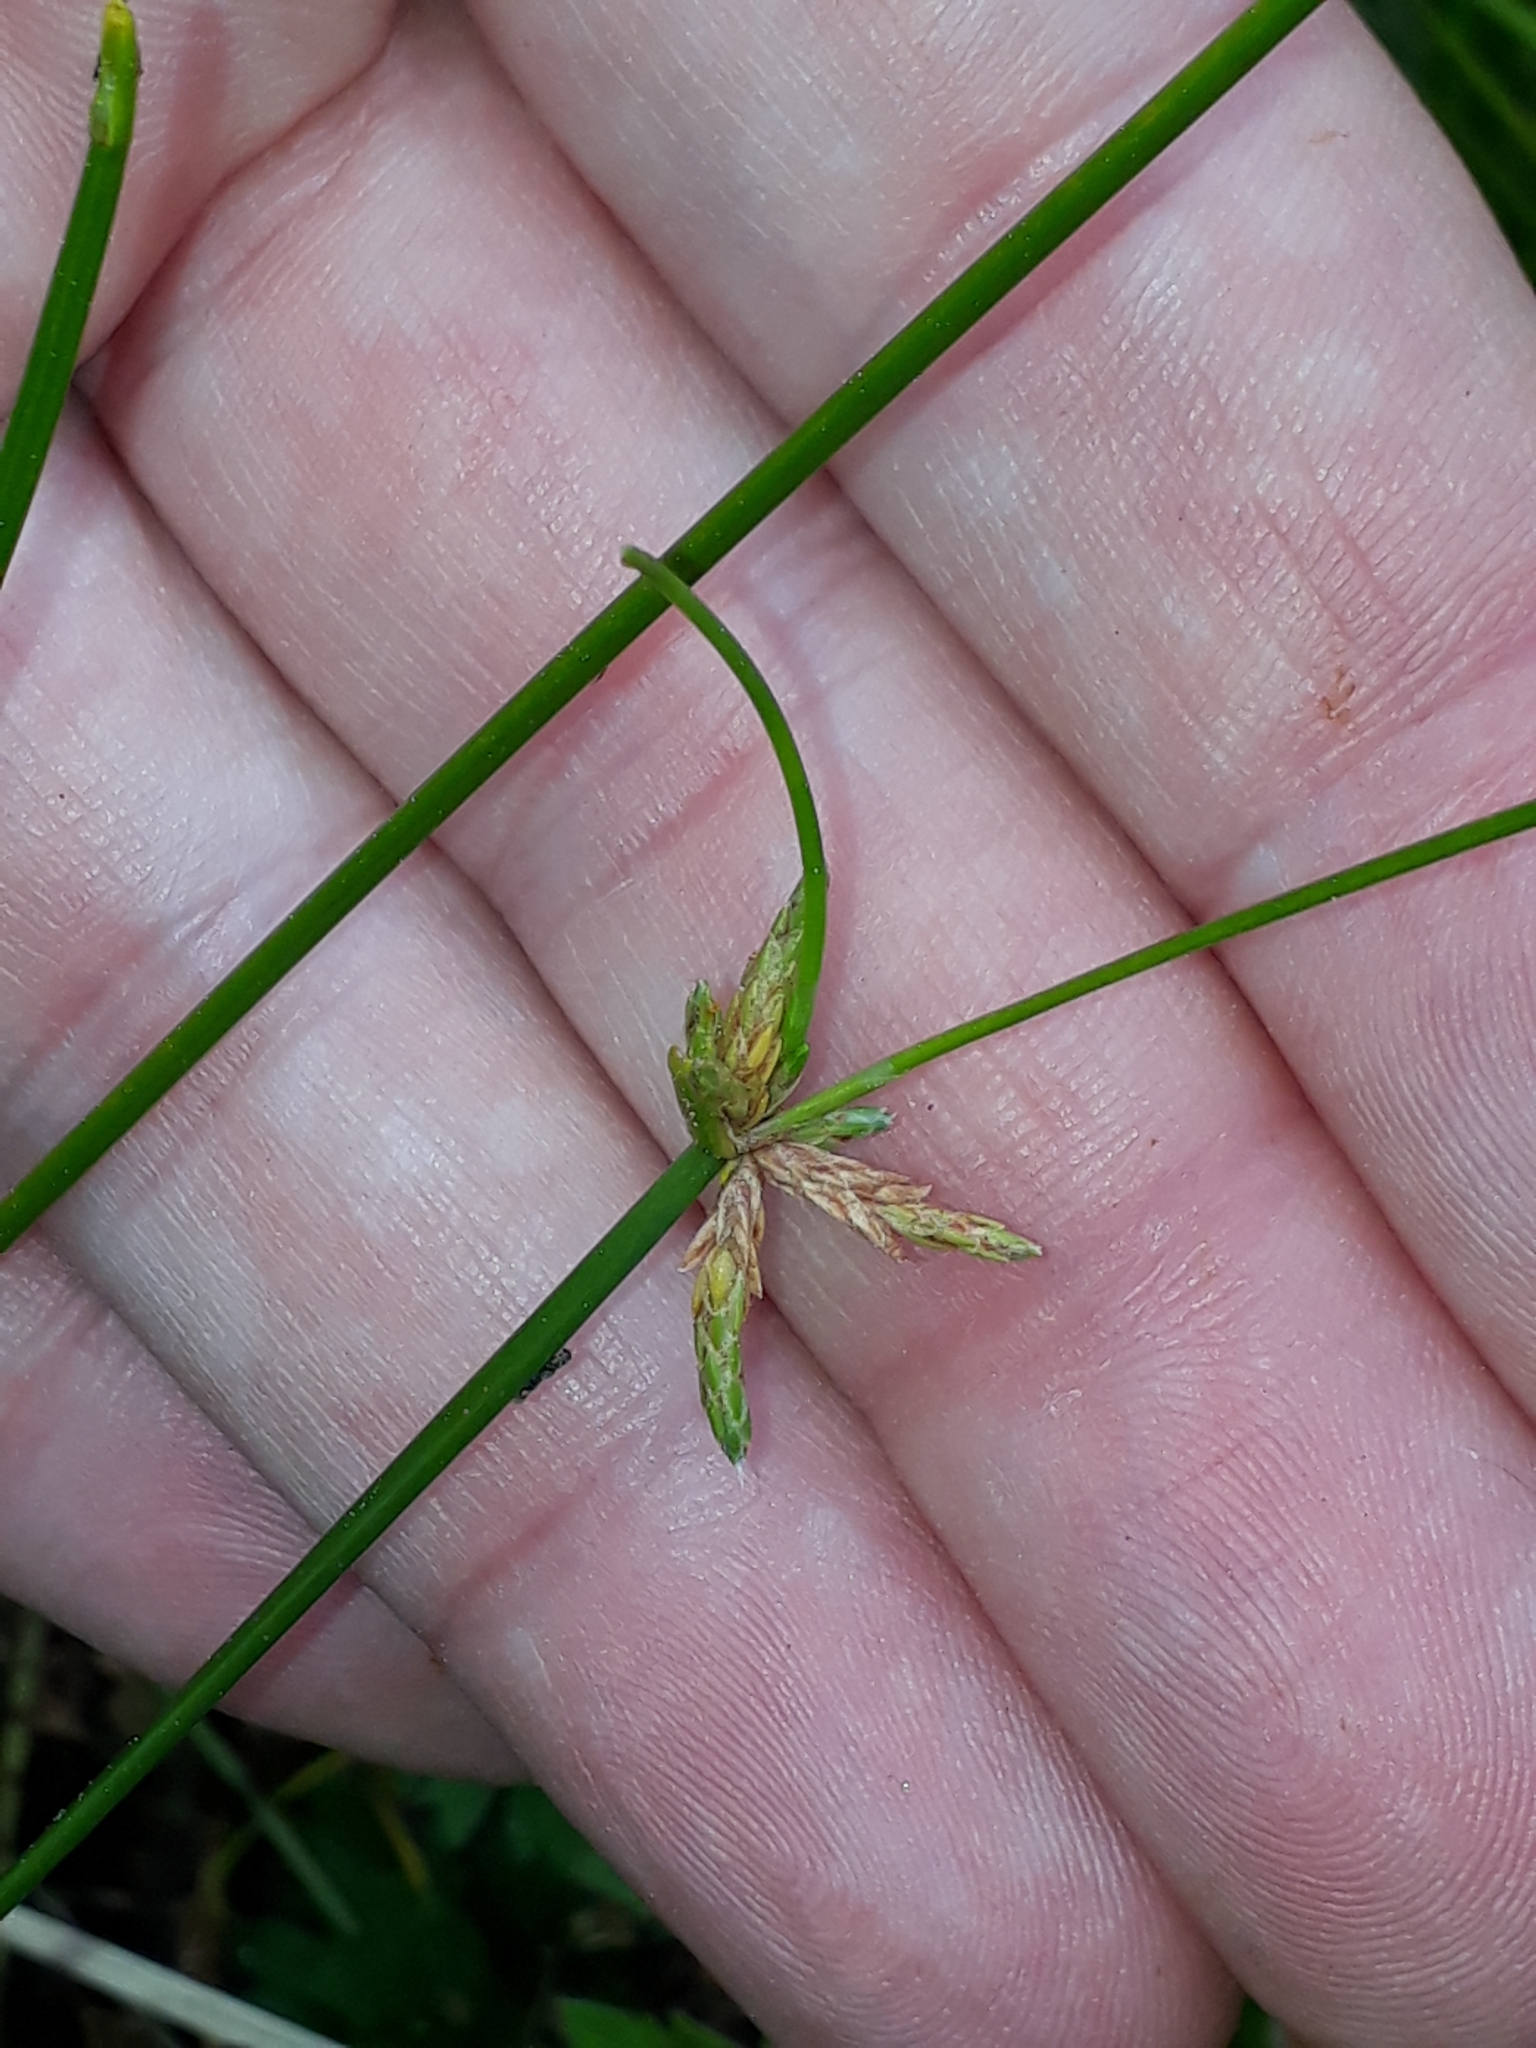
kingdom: Plantae
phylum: Tracheophyta
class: Liliopsida
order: Poales
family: Cyperaceae
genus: Isolepis
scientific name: Isolepis prolifera
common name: Proliferating bulrush
